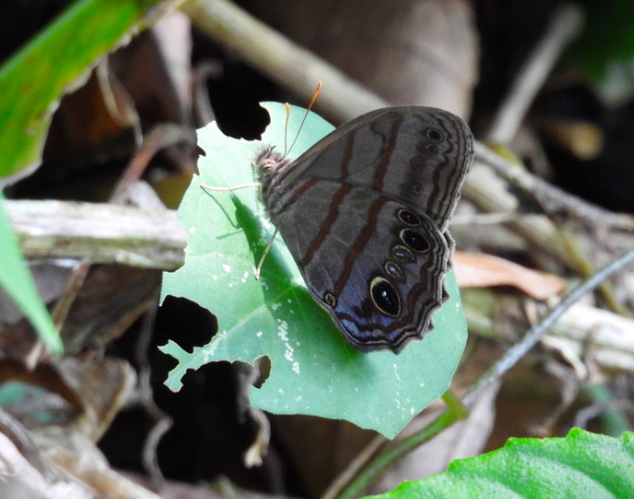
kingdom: Animalia
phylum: Arthropoda
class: Insecta
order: Lepidoptera
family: Nymphalidae
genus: Magneuptychia
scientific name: Magneuptychia libye
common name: Blue-gray satyr
